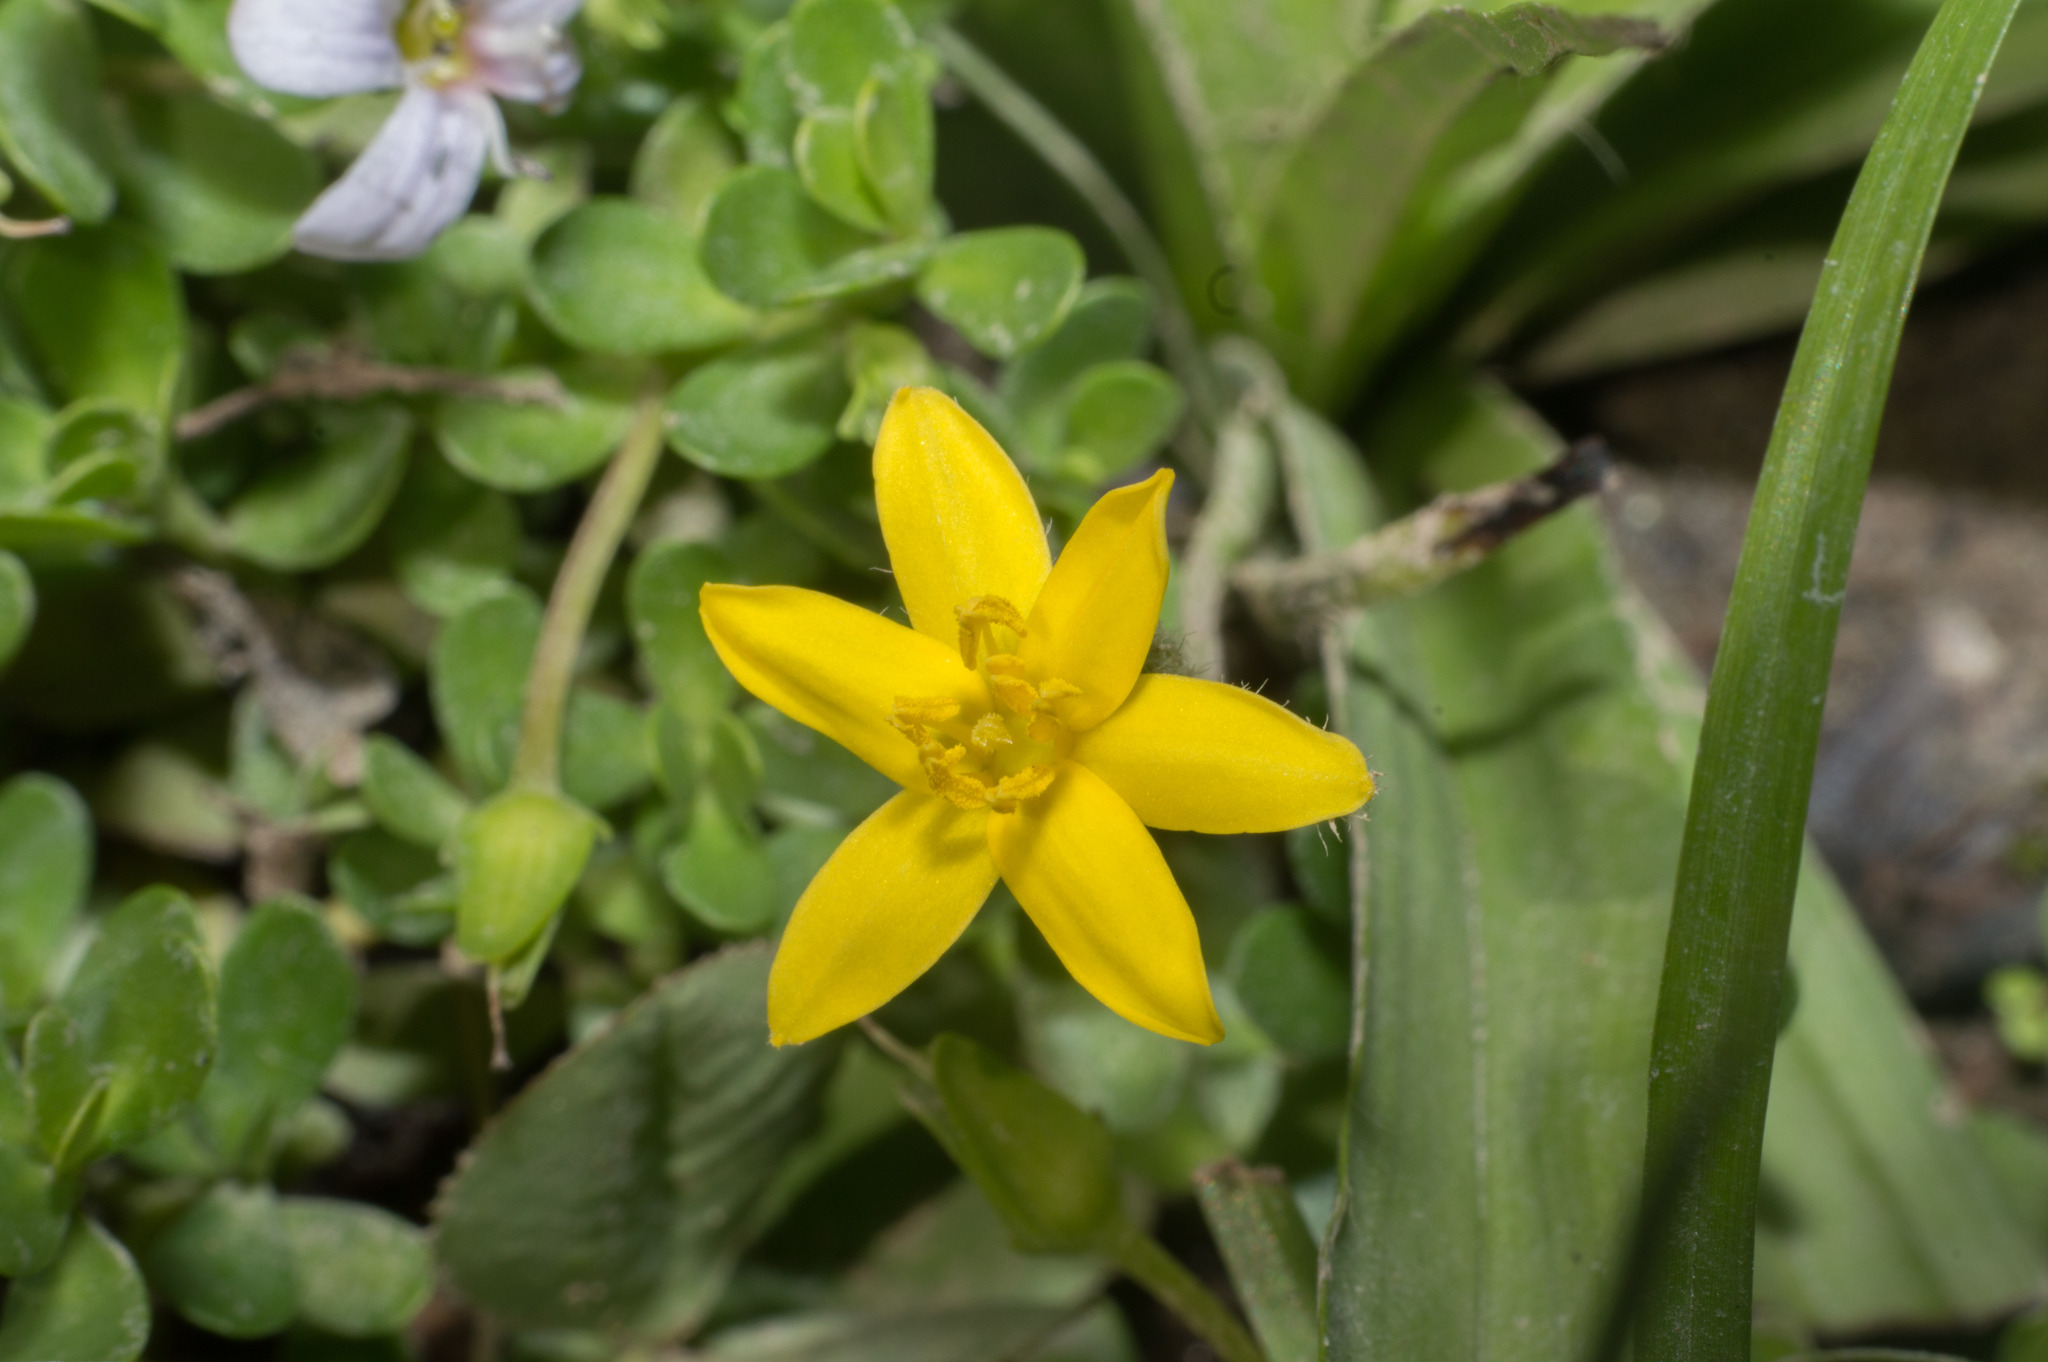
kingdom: Plantae
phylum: Tracheophyta
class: Liliopsida
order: Asparagales
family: Hypoxidaceae
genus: Hypoxis
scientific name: Hypoxis decumbens
